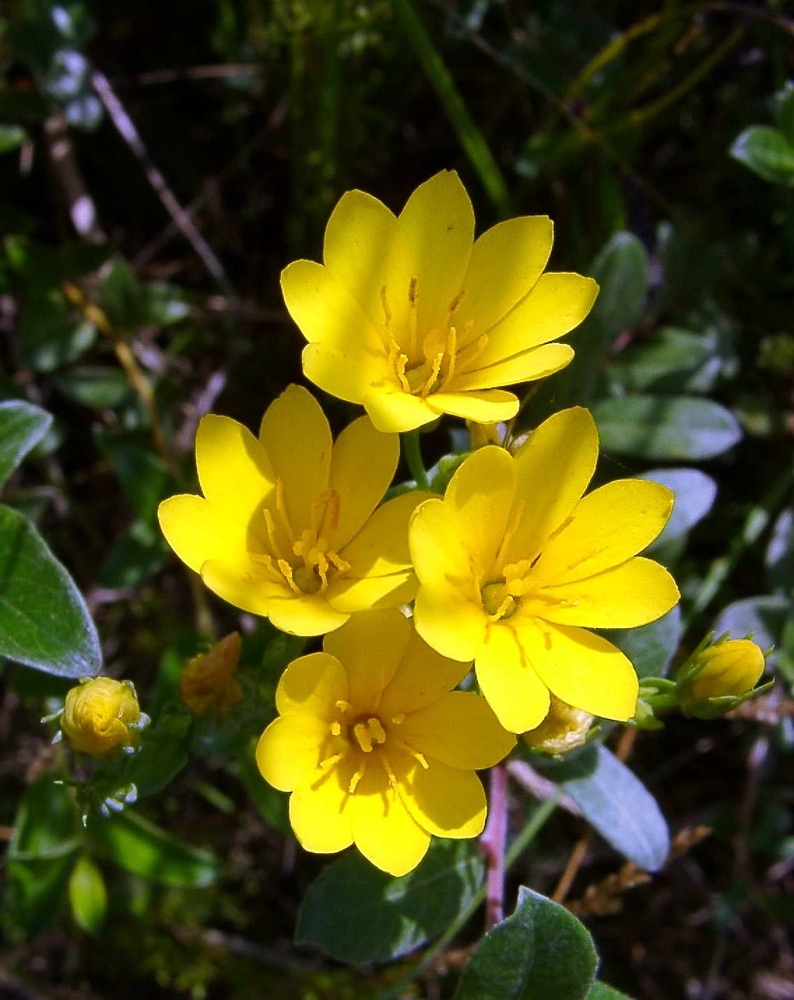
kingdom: Plantae
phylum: Tracheophyta
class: Magnoliopsida
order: Gentianales
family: Gentianaceae
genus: Blackstonia
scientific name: Blackstonia perfoliata
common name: Yellow-wort
